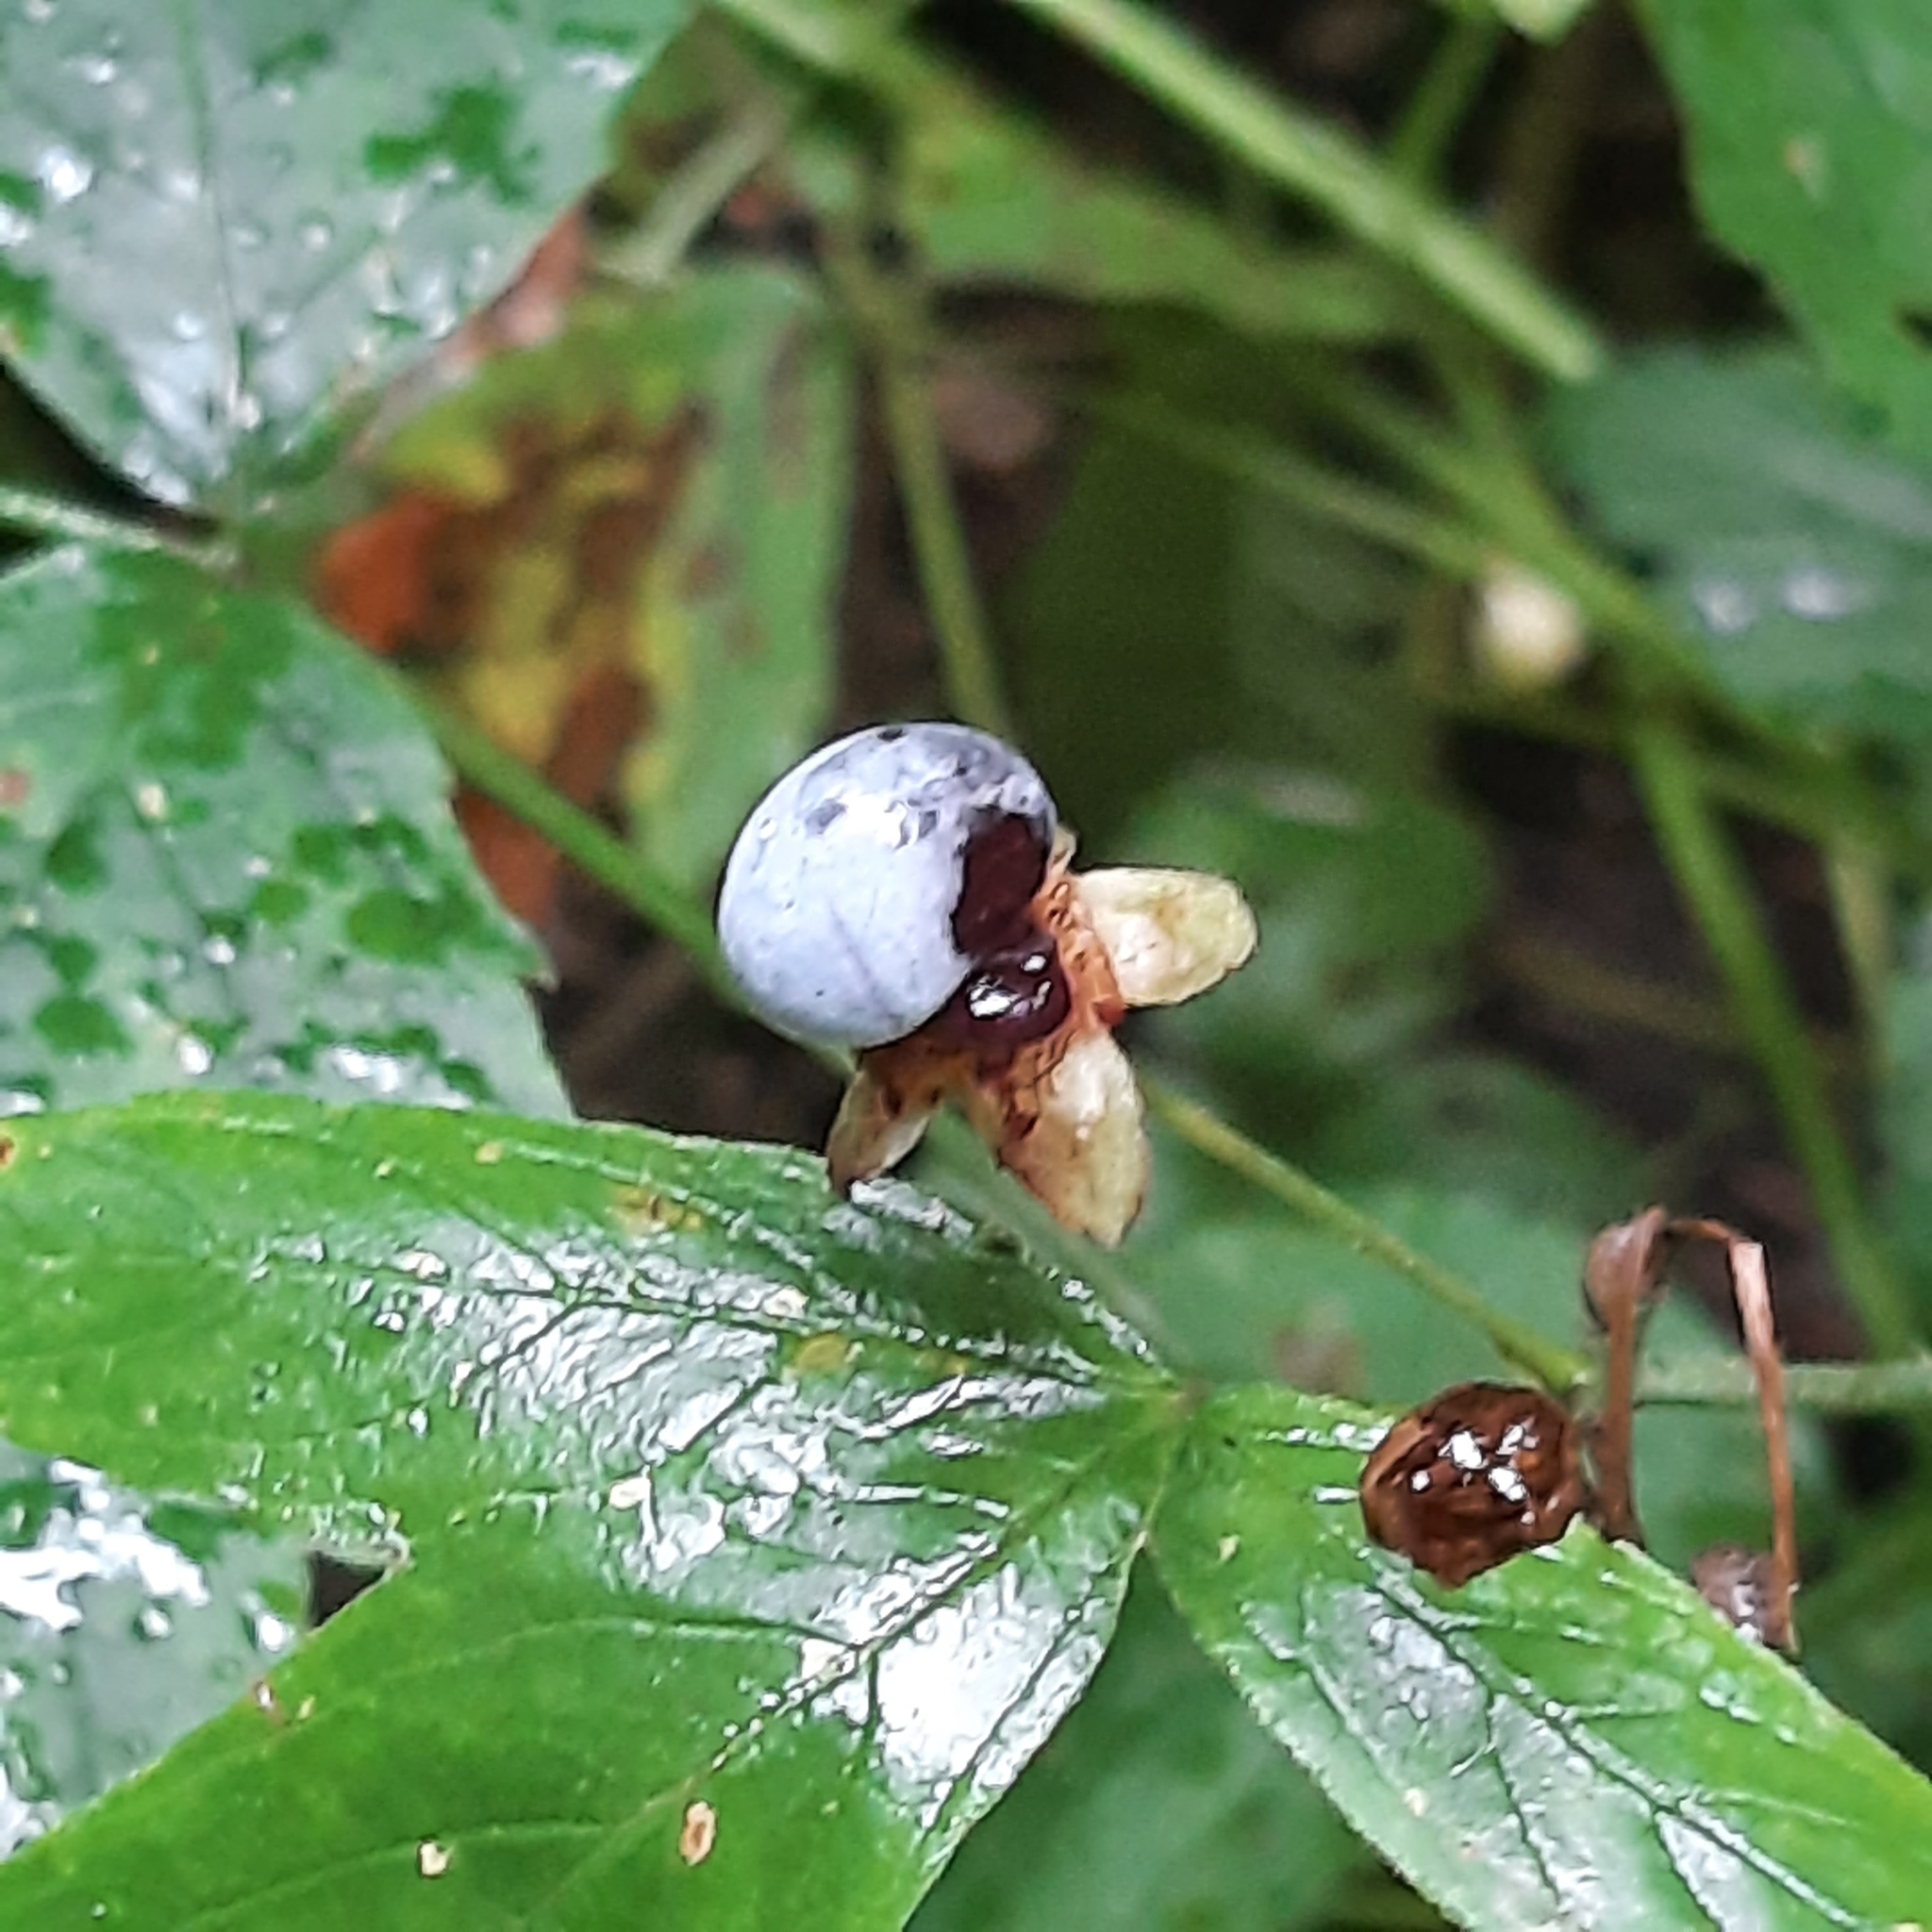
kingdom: Plantae
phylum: Tracheophyta
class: Magnoliopsida
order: Rosales
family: Rosaceae
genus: Rubus
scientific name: Rubus caesius
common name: Dewberry
